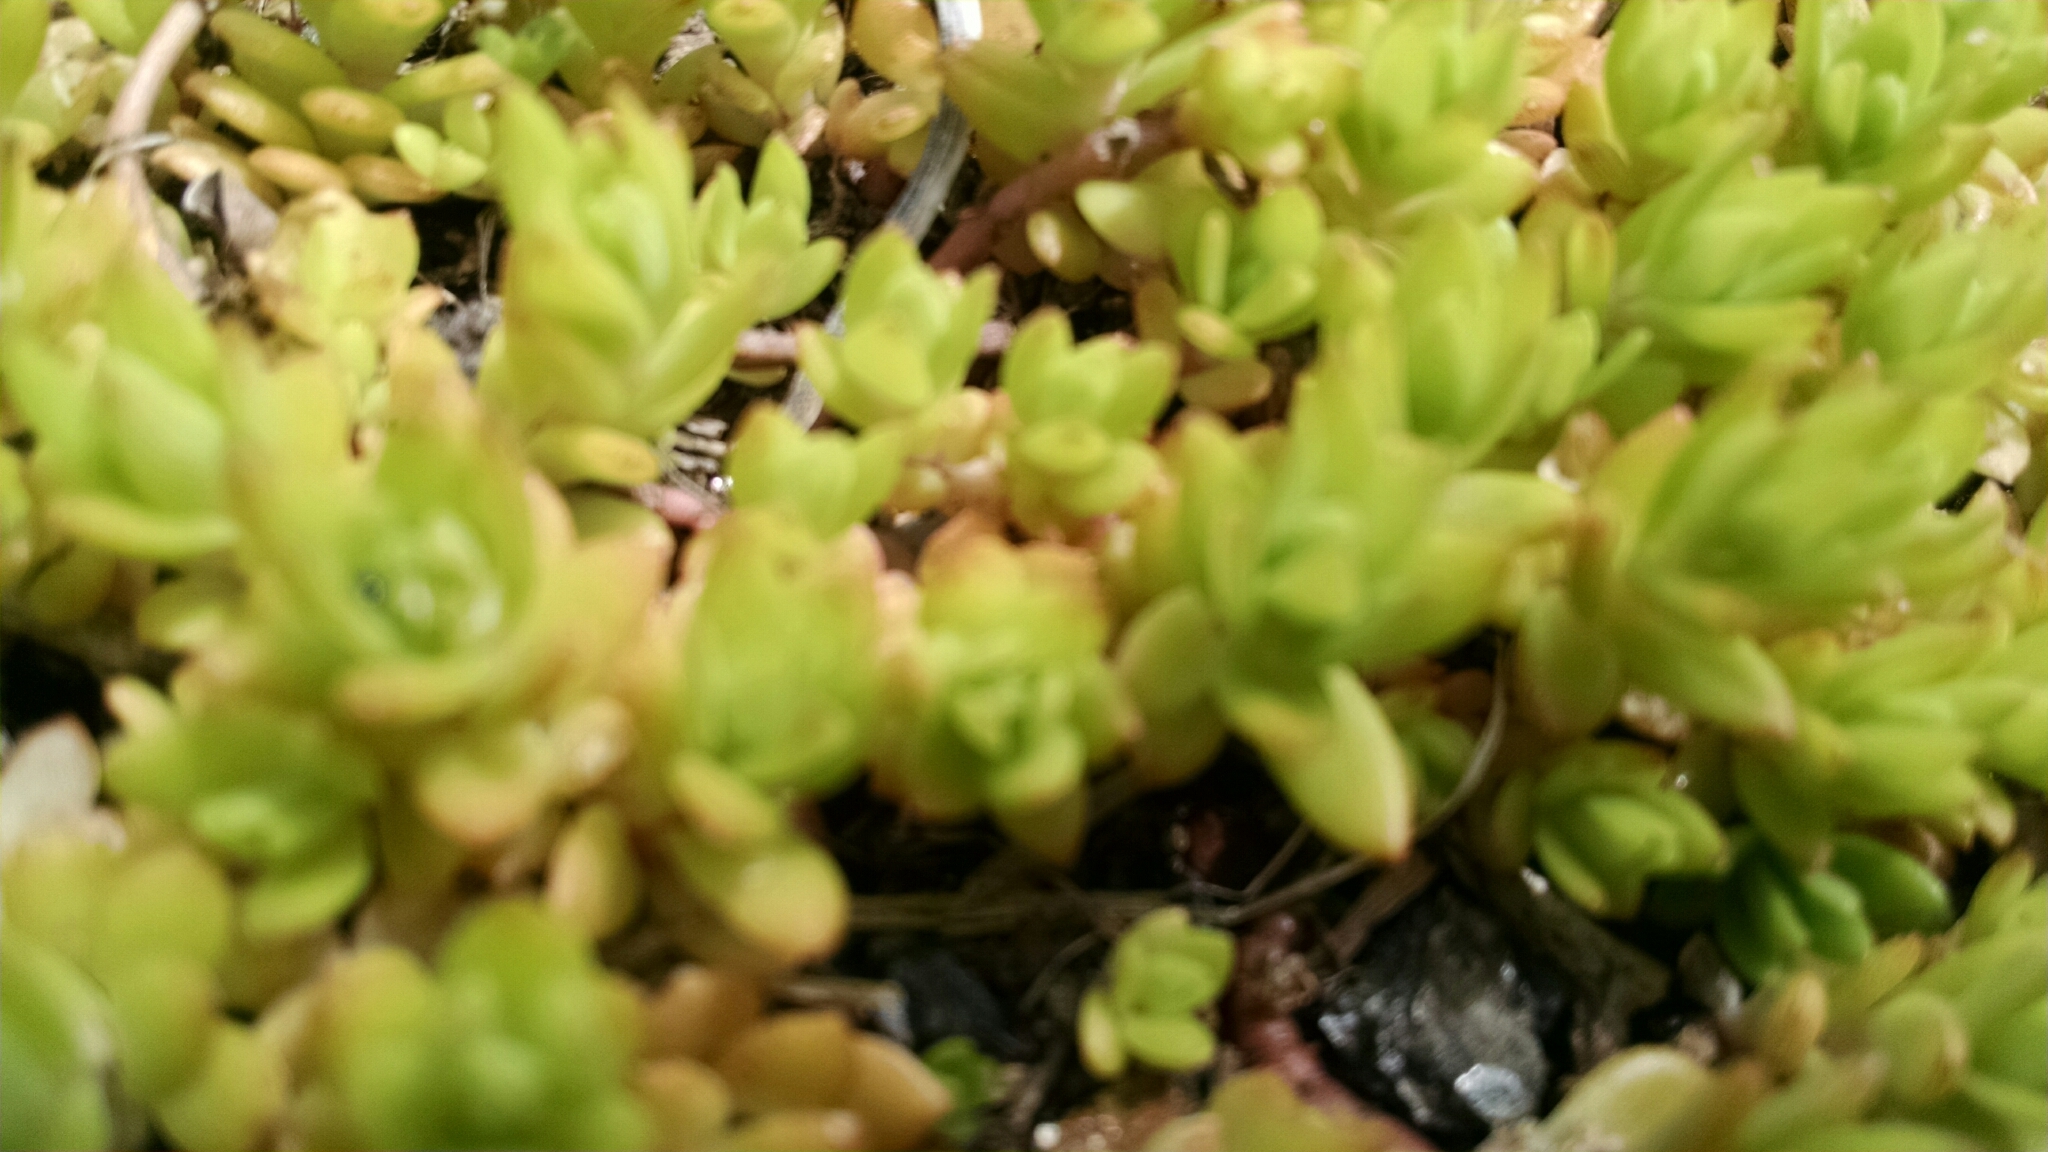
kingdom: Plantae
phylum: Tracheophyta
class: Magnoliopsida
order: Saxifragales
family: Crassulaceae
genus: Sedum
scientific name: Sedum sarmentosum
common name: Stringy stonecrop
